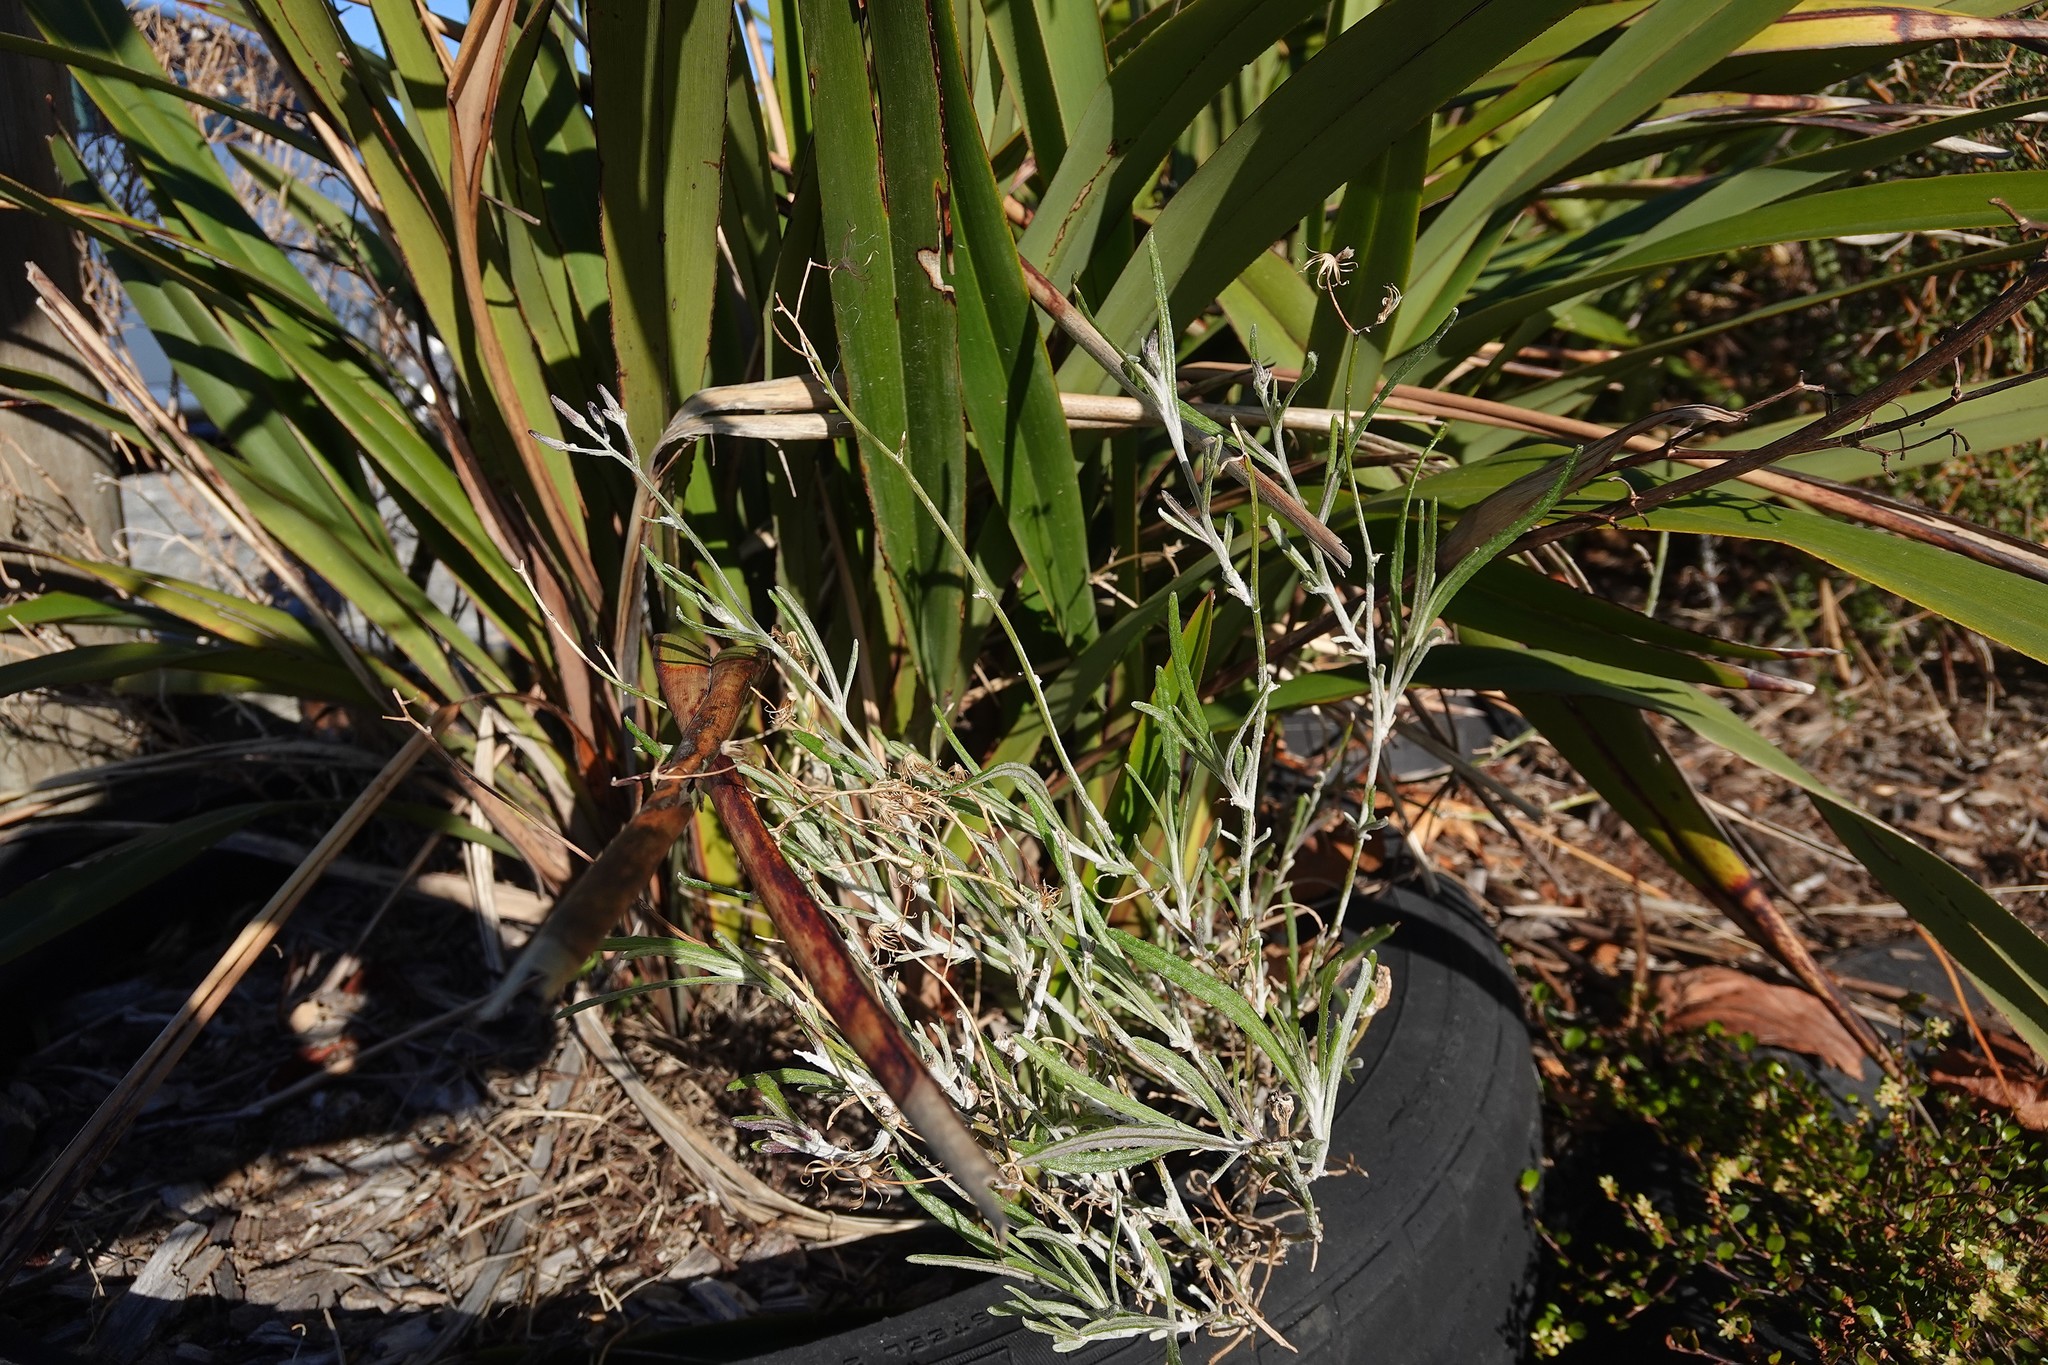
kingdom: Plantae
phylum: Tracheophyta
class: Magnoliopsida
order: Asterales
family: Asteraceae
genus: Senecio
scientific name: Senecio quadridentatus
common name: Cotton fireweed
